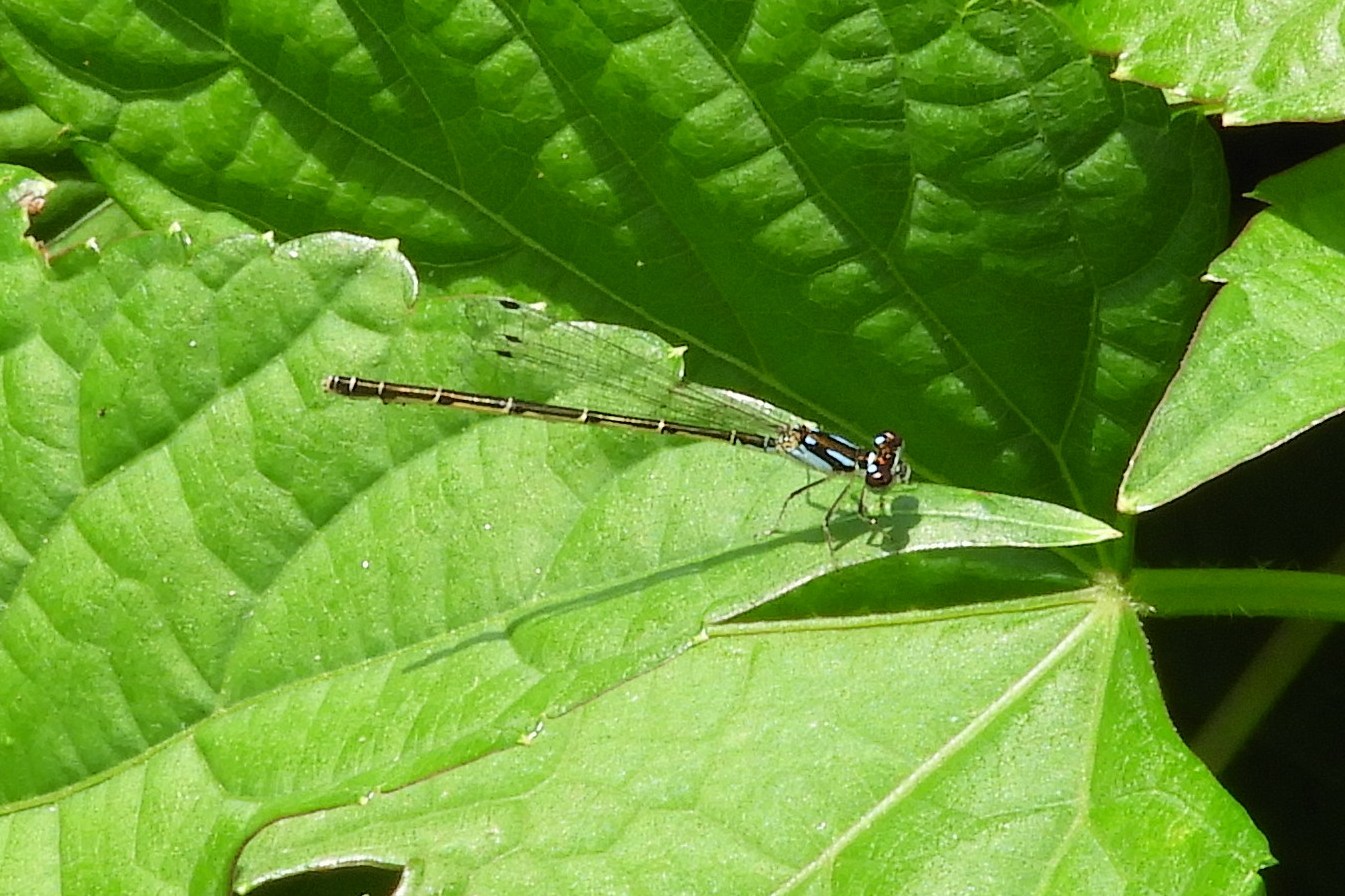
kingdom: Animalia
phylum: Arthropoda
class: Insecta
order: Odonata
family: Coenagrionidae
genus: Ischnura
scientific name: Ischnura posita
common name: Fragile forktail
